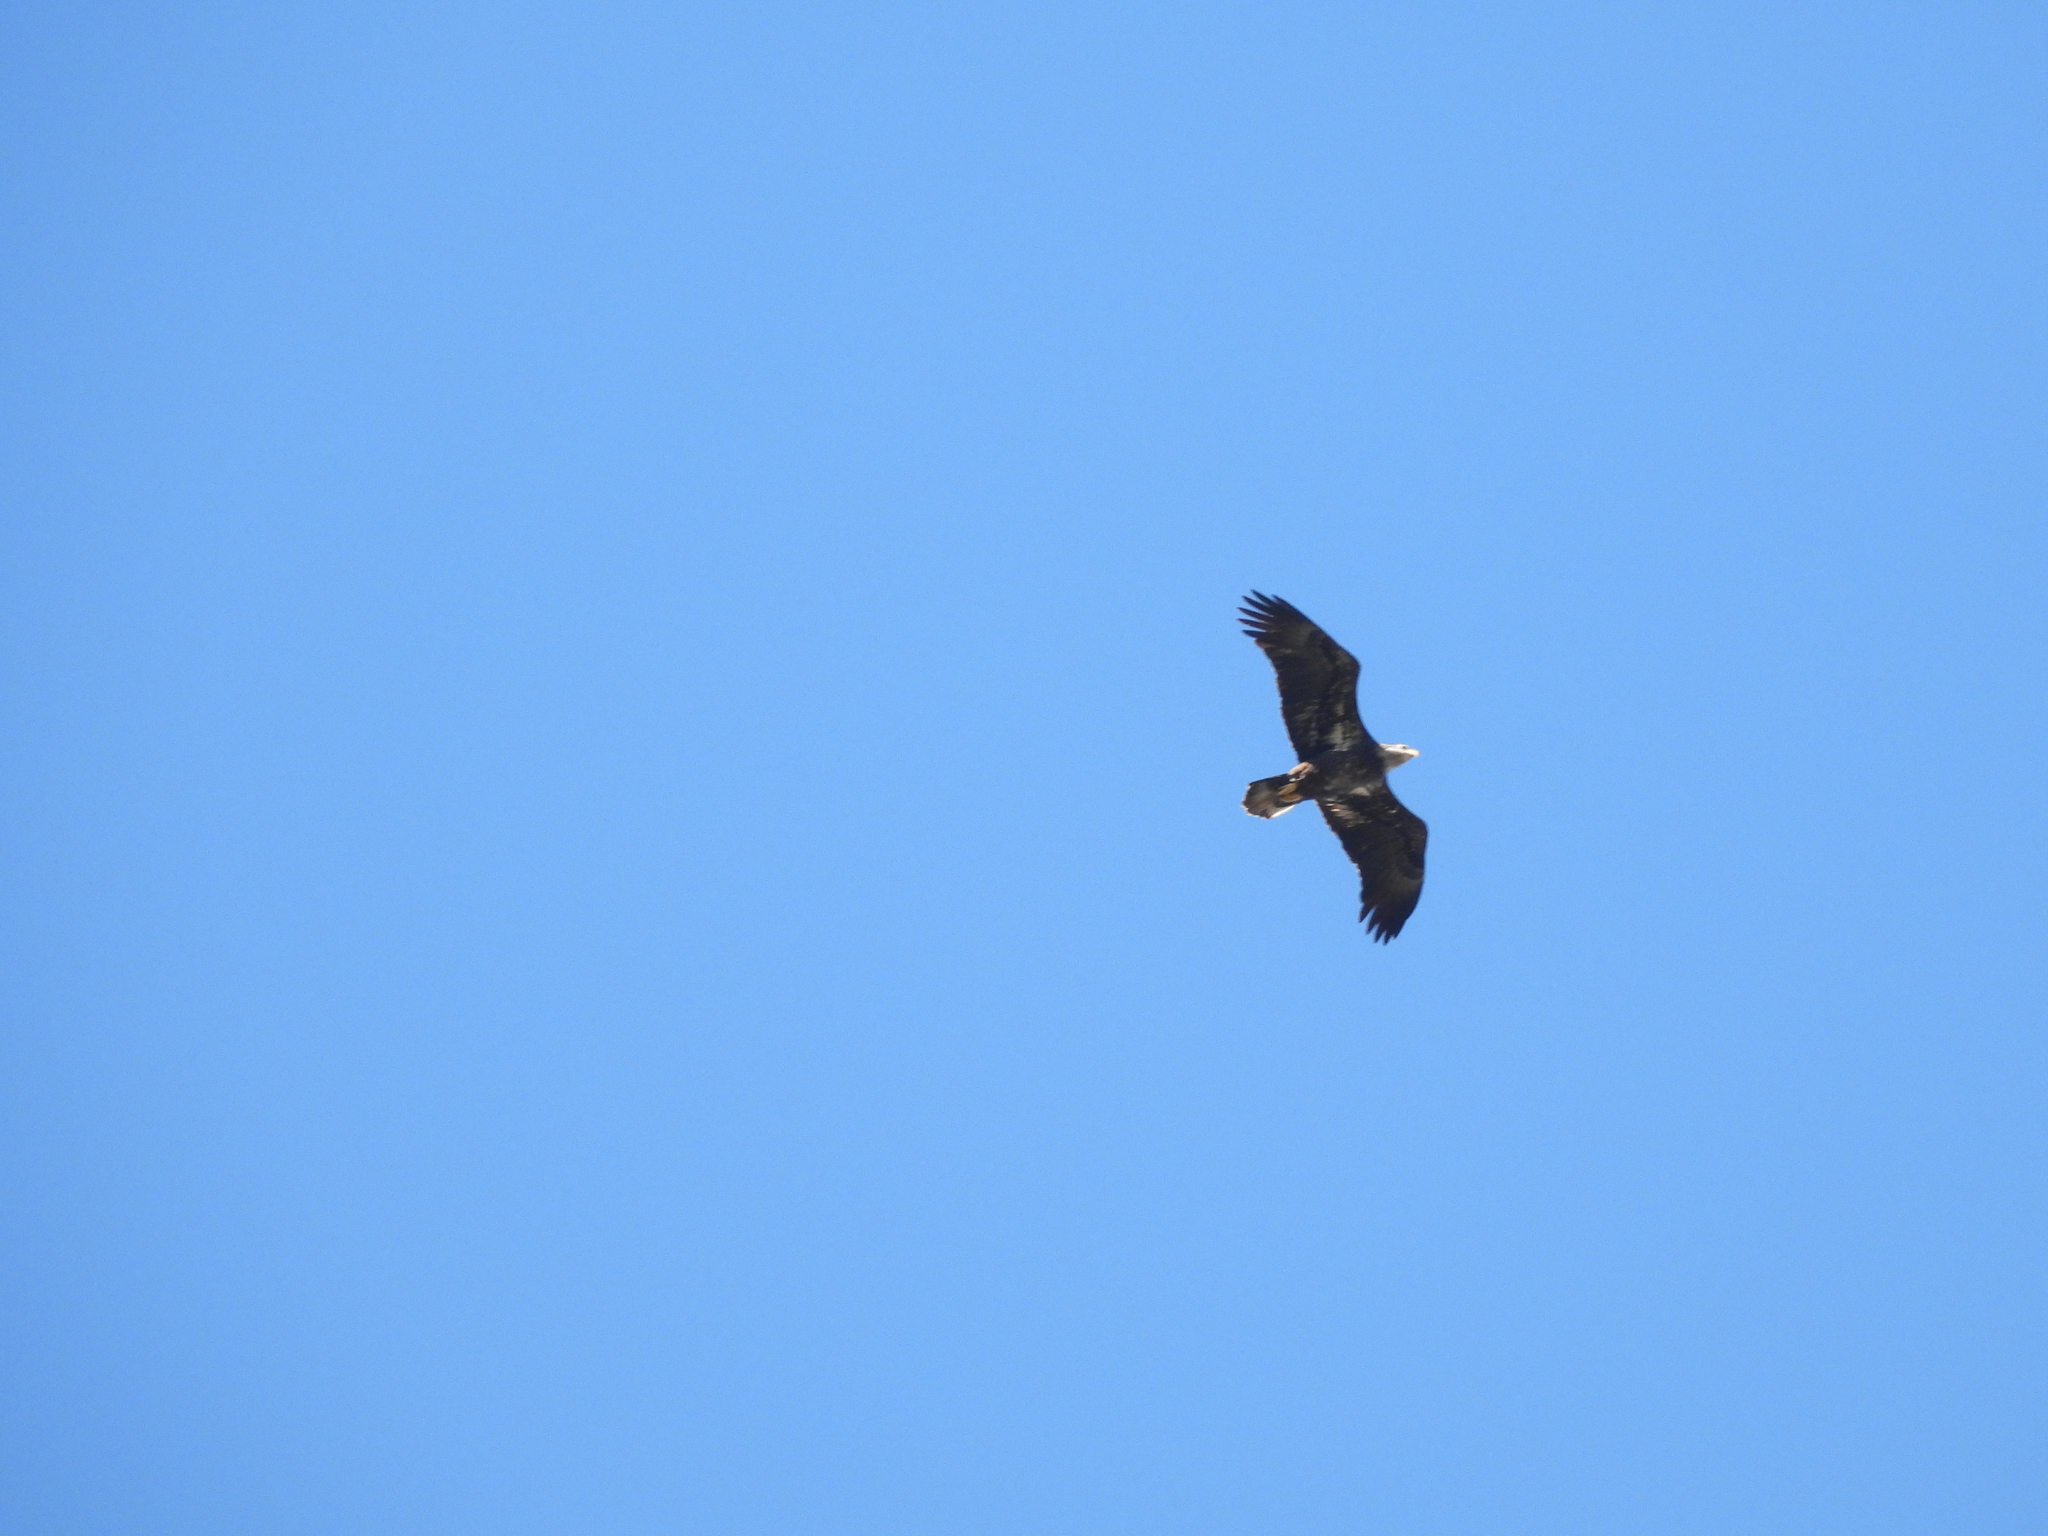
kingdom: Animalia
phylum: Chordata
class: Aves
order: Accipitriformes
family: Accipitridae
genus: Haliaeetus
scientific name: Haliaeetus leucocephalus
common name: Bald eagle
